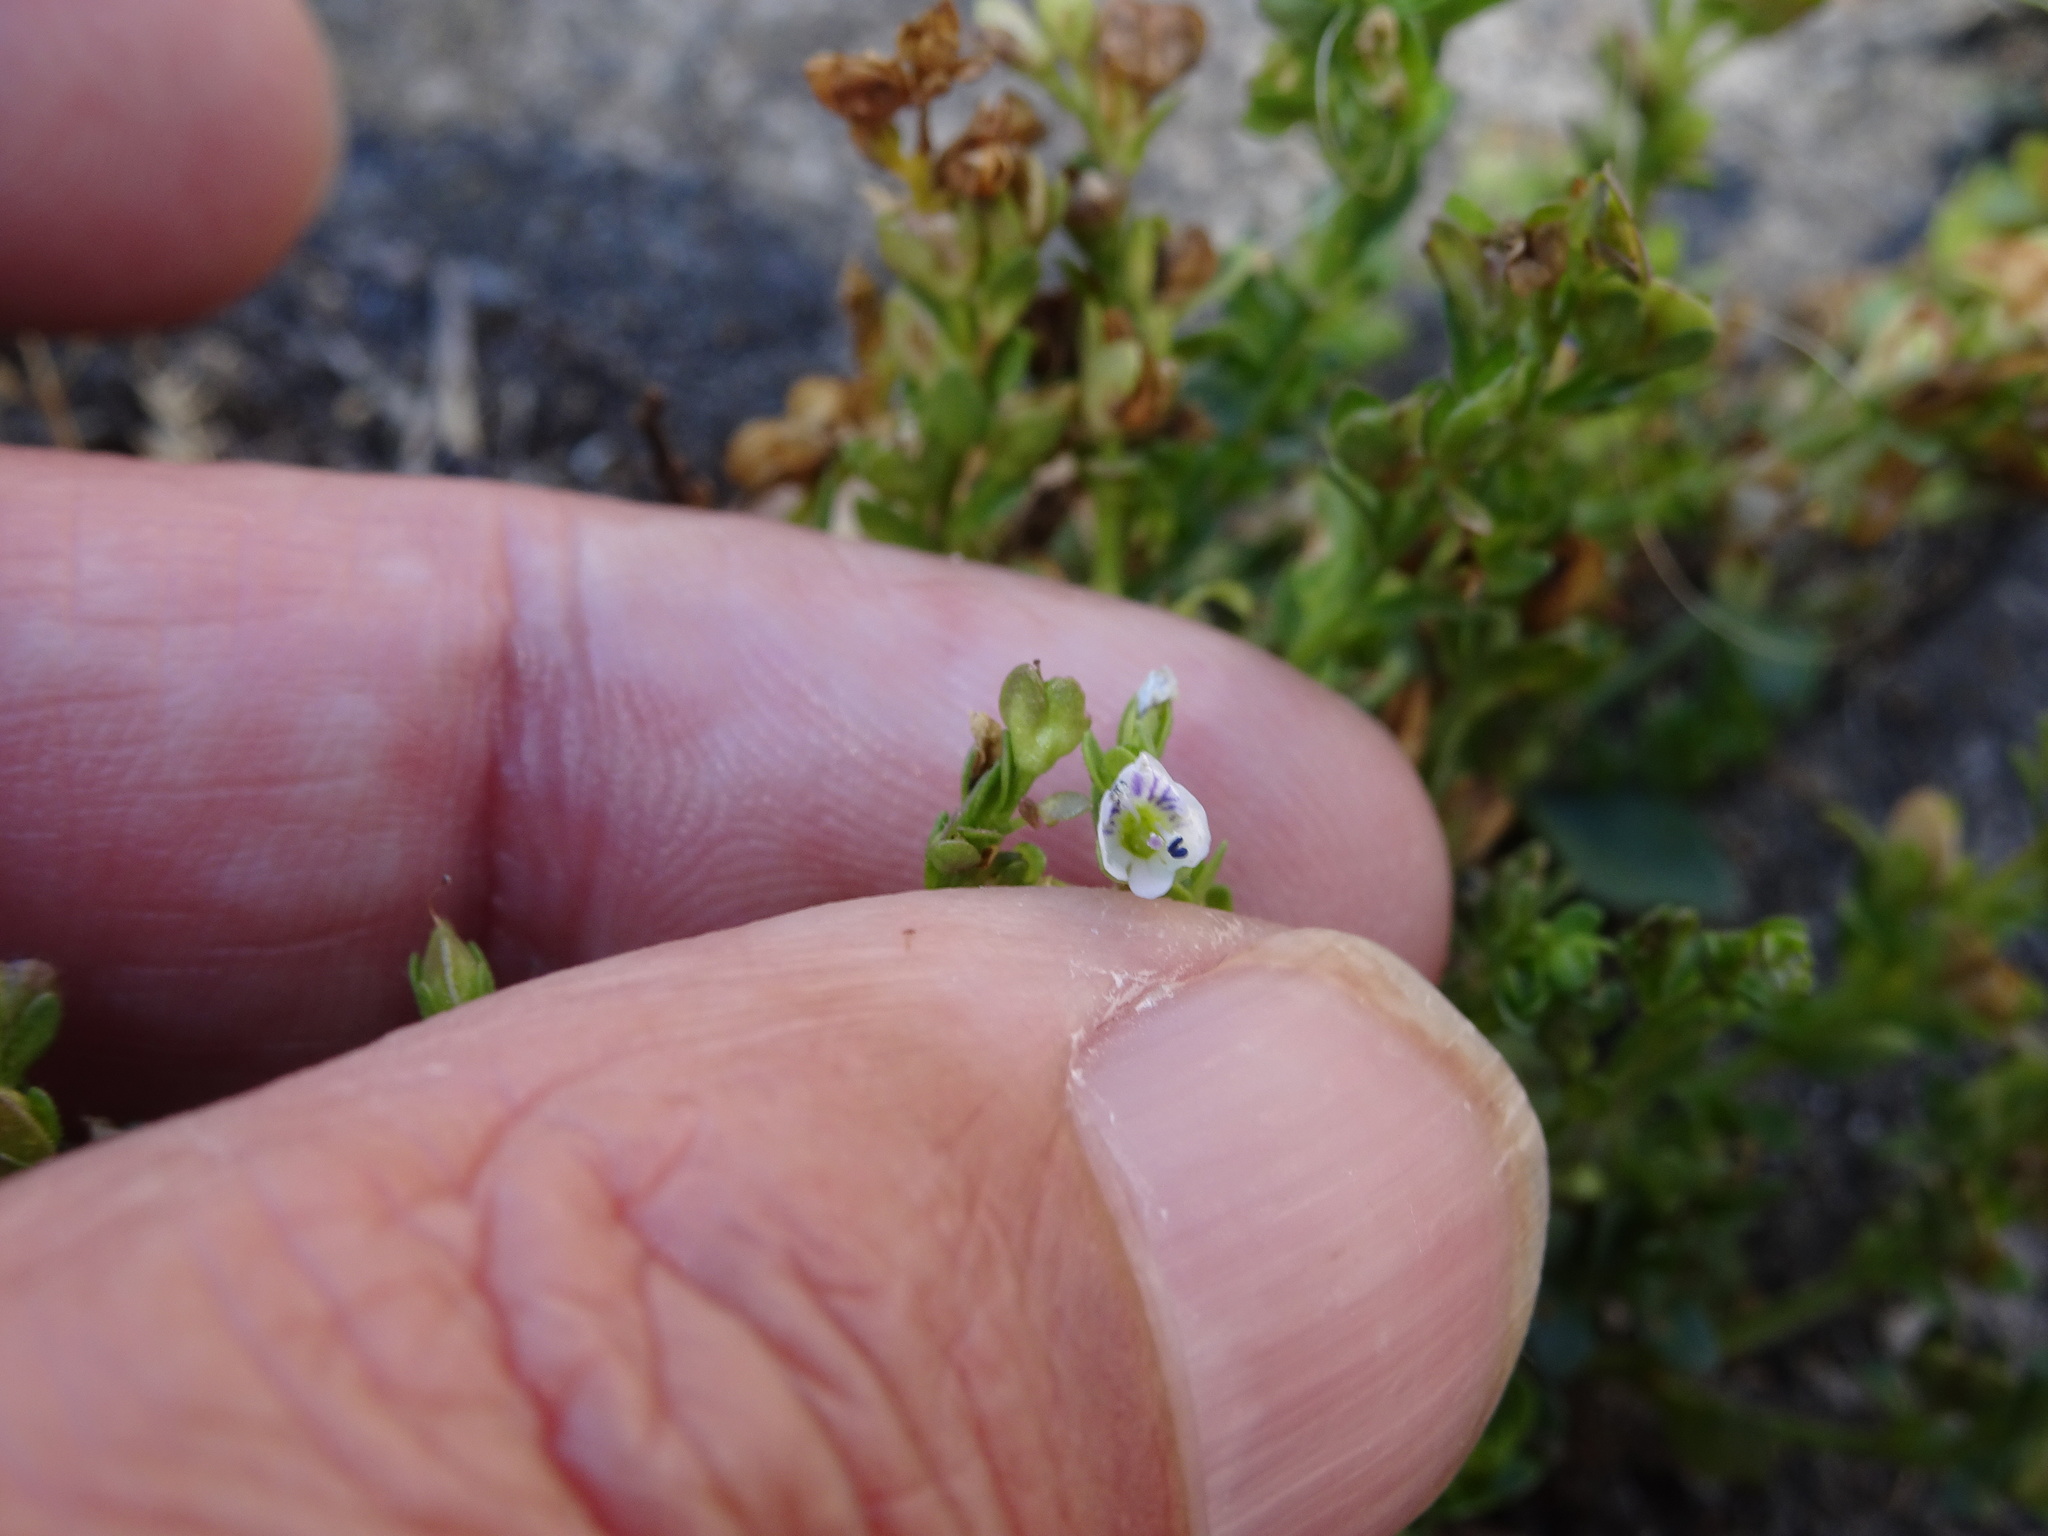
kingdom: Plantae
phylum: Tracheophyta
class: Magnoliopsida
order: Lamiales
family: Plantaginaceae
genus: Veronica
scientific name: Veronica serpyllifolia
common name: Thyme-leaved speedwell
